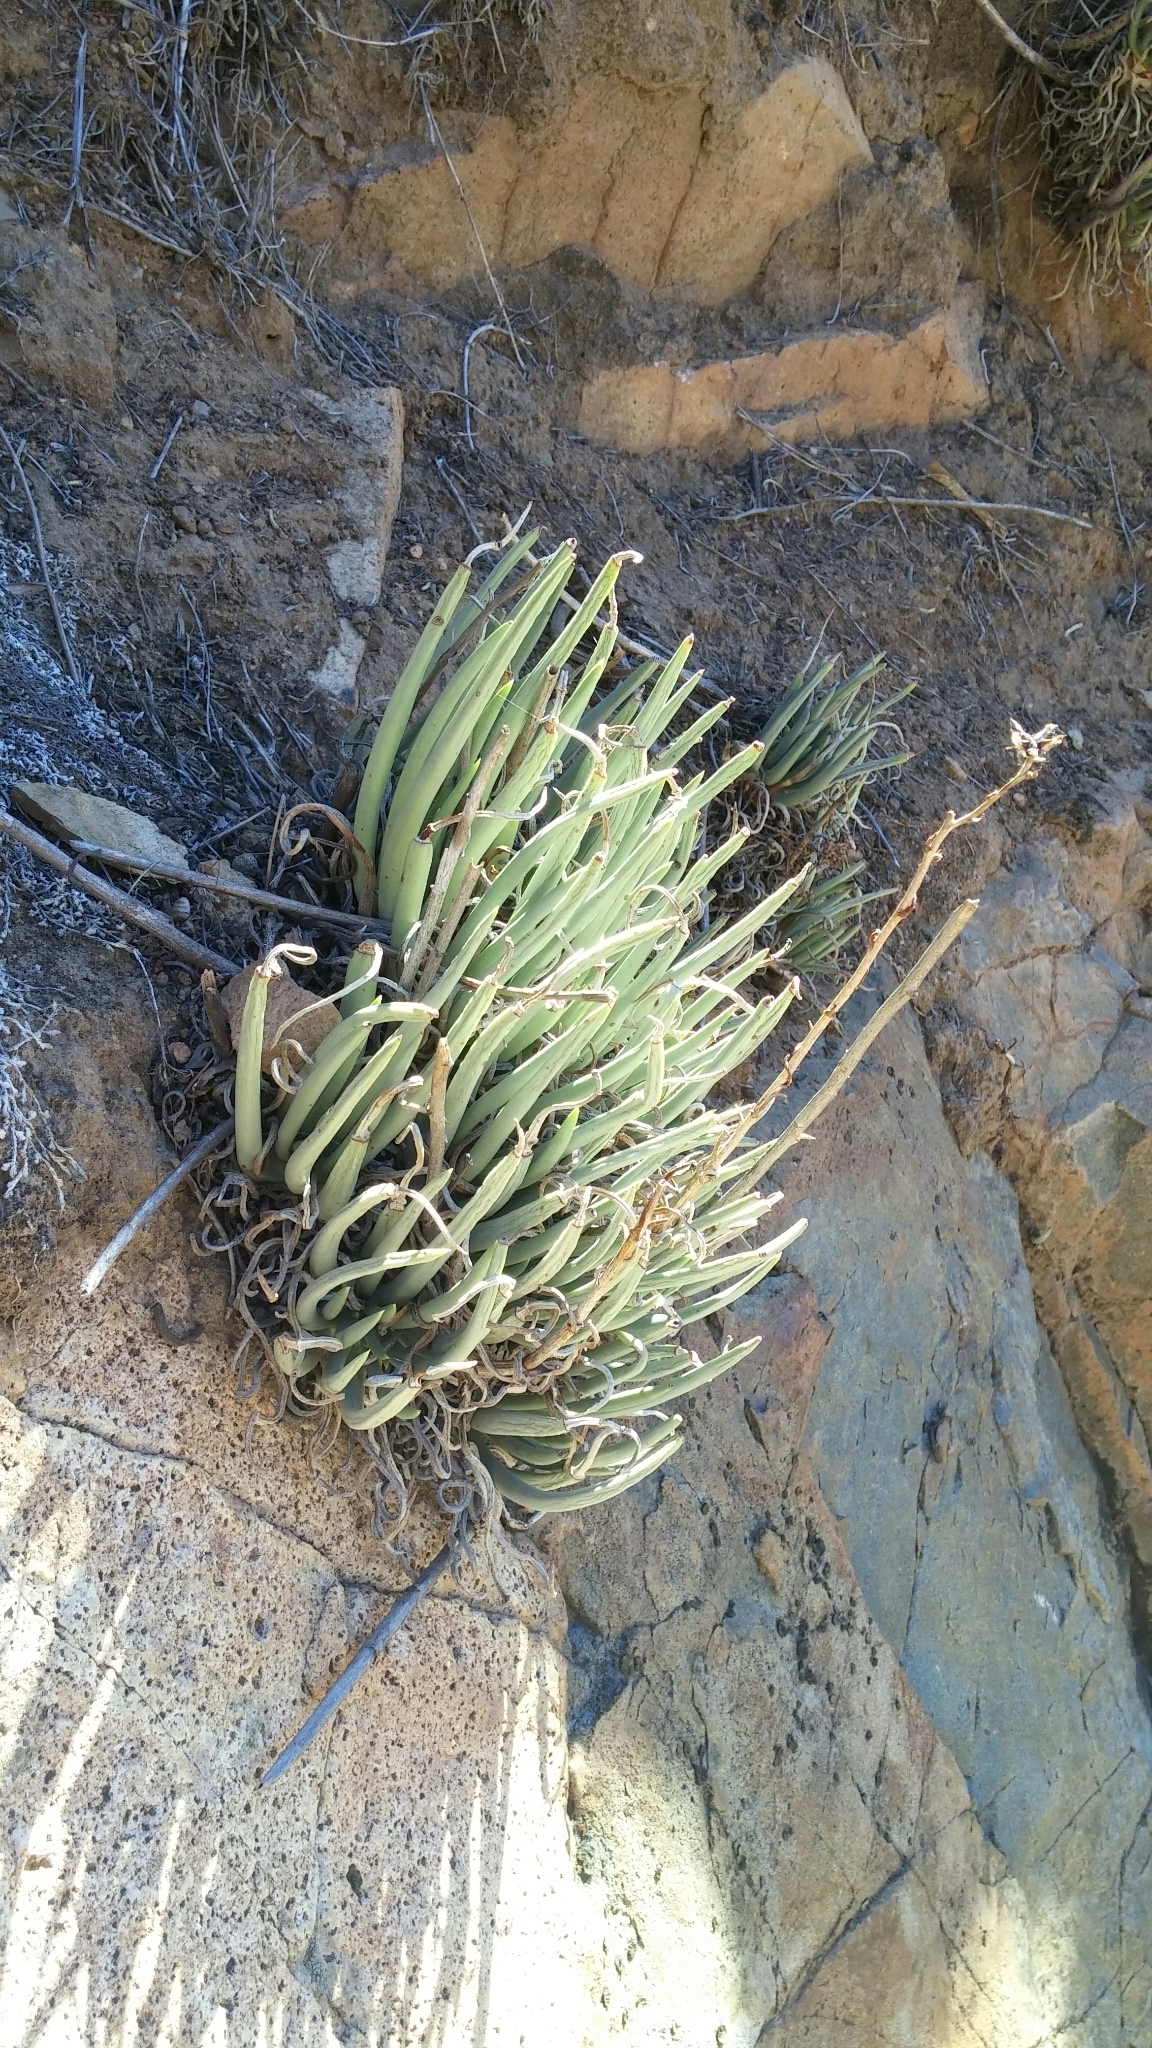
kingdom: Plantae
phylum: Tracheophyta
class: Magnoliopsida
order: Saxifragales
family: Crassulaceae
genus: Dudleya
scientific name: Dudleya edulis
